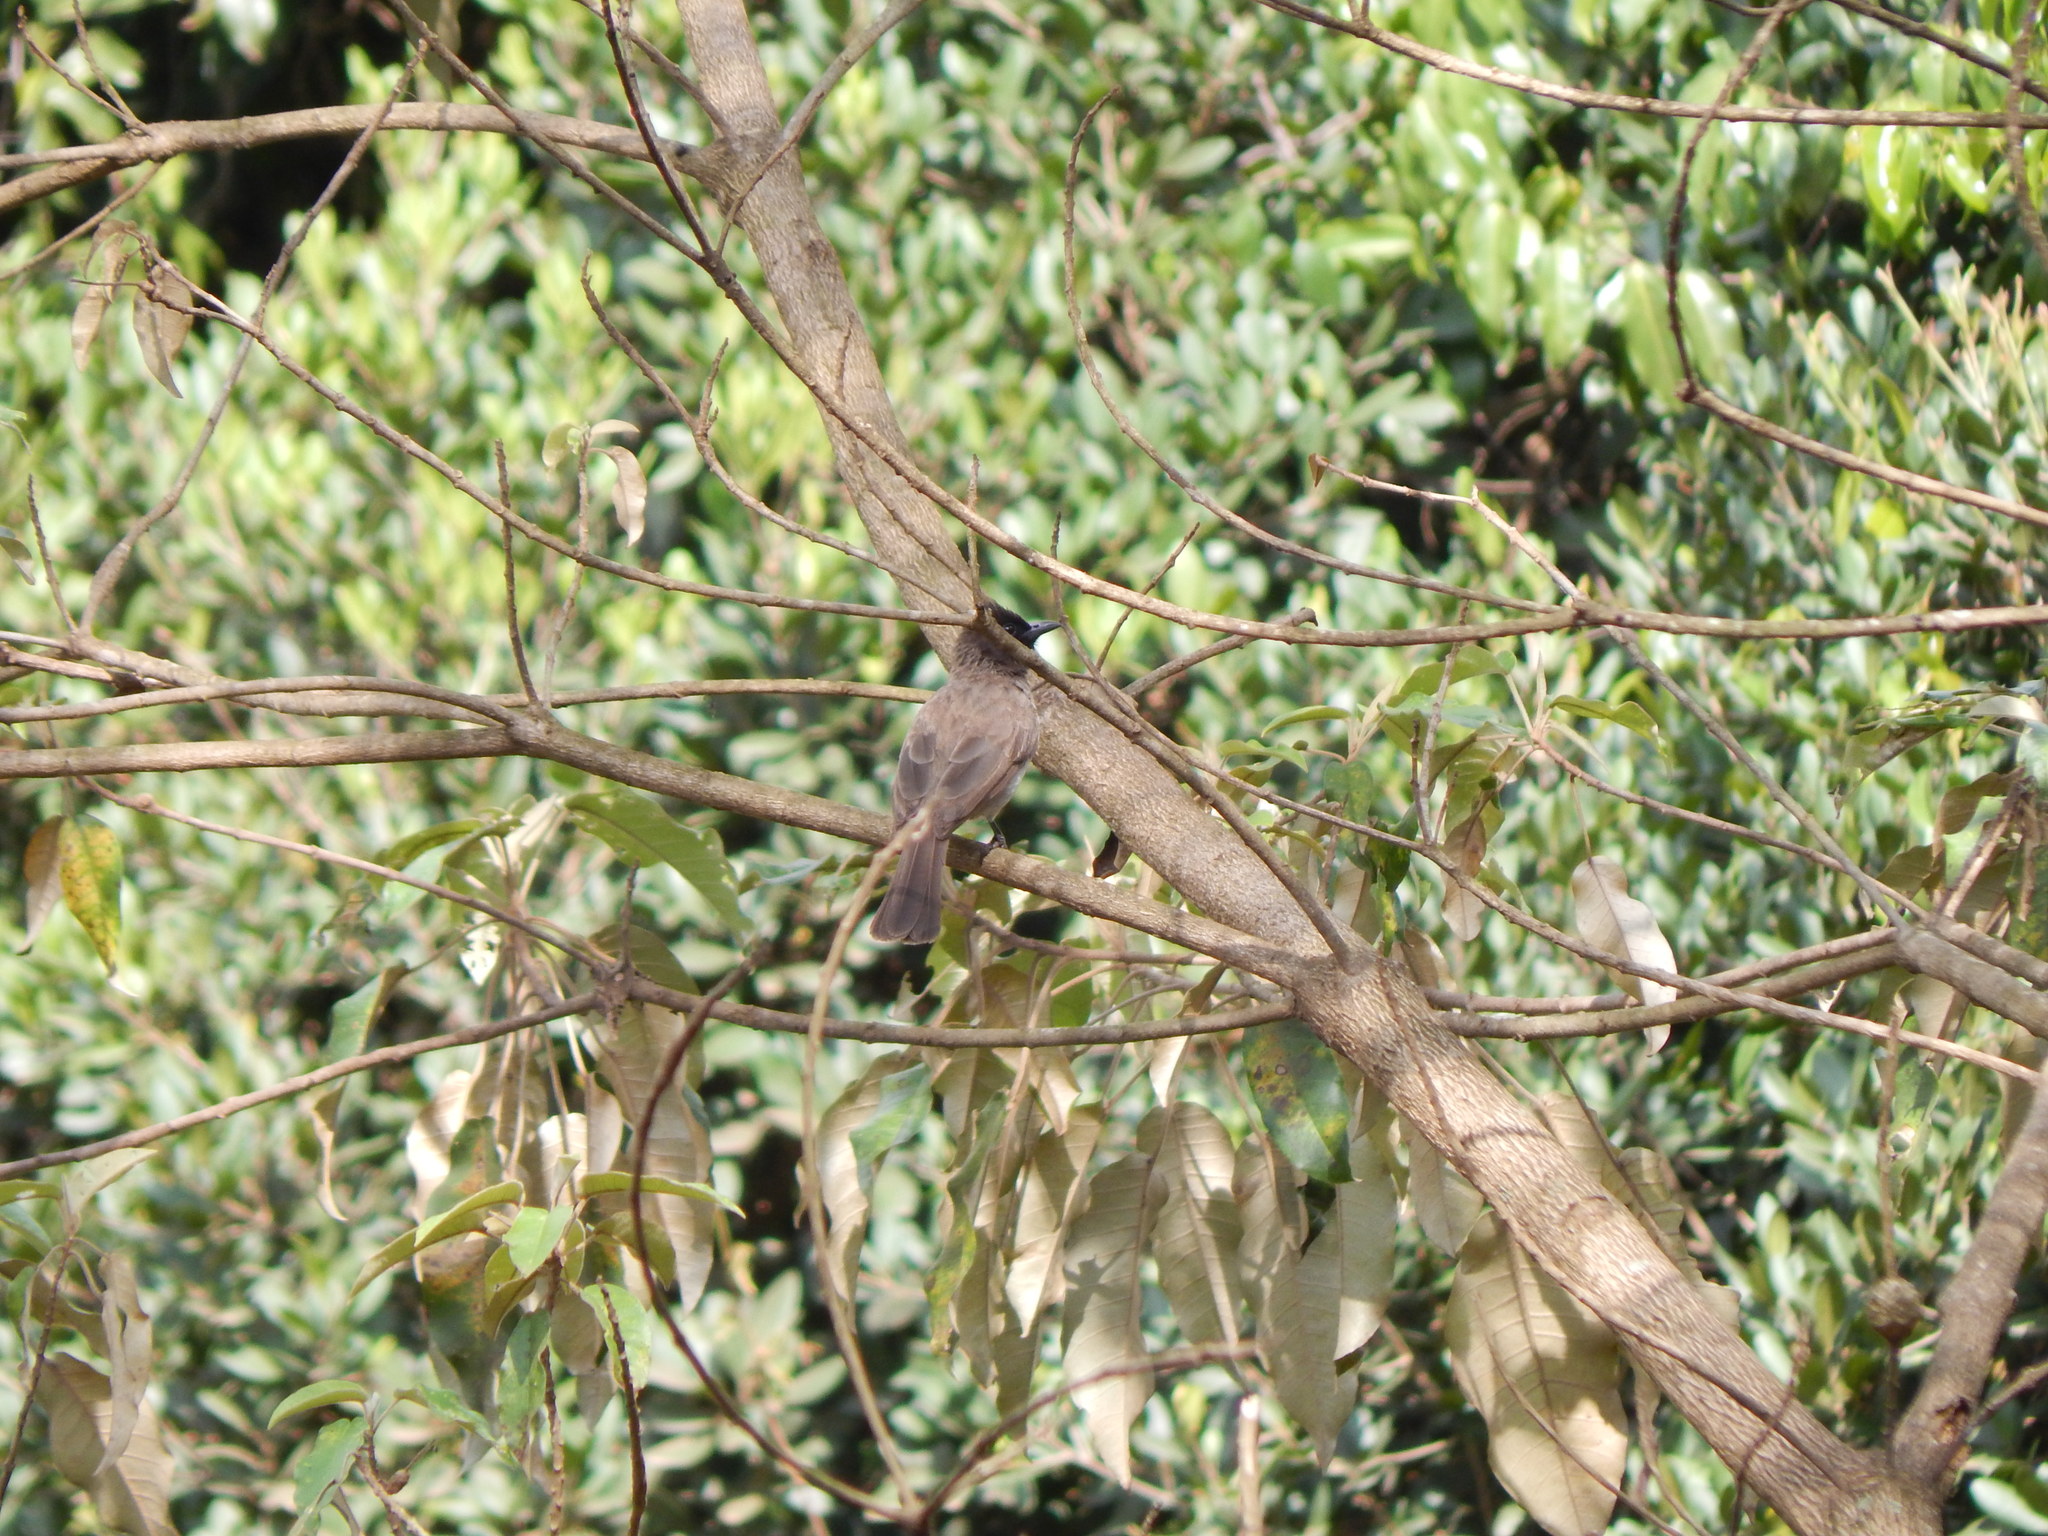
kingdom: Animalia
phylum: Chordata
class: Aves
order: Passeriformes
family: Pycnonotidae
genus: Pycnonotus
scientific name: Pycnonotus barbatus
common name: Common bulbul
